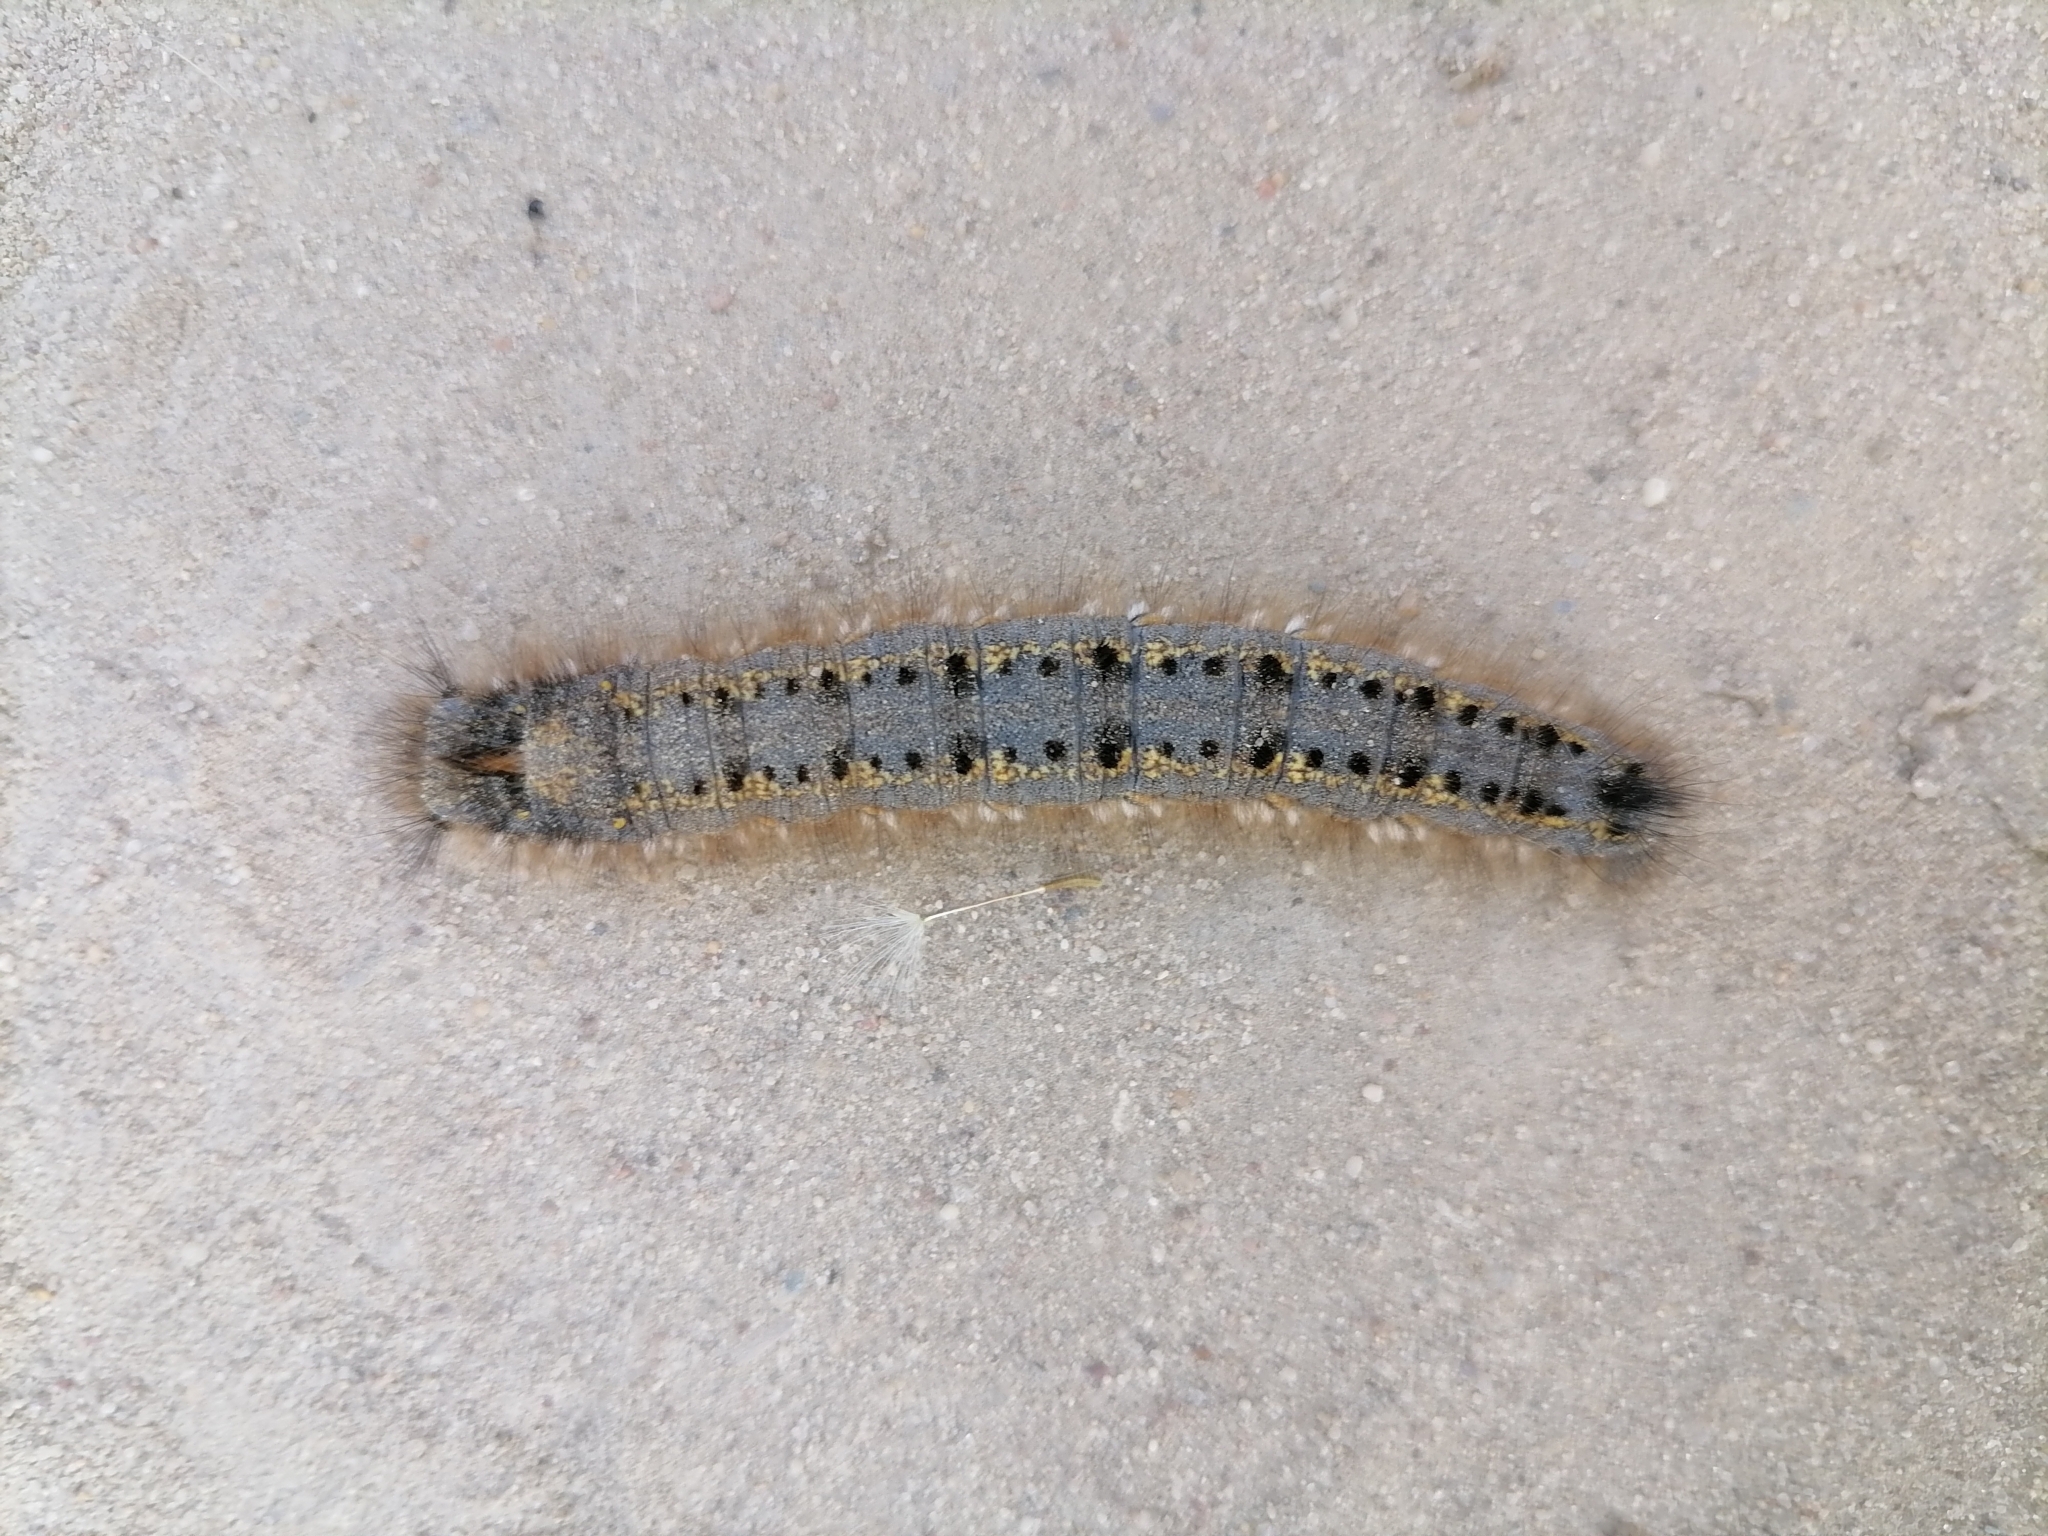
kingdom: Animalia
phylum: Arthropoda
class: Insecta
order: Lepidoptera
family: Lasiocampidae
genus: Euthrix
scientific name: Euthrix potatoria
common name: Drinker
